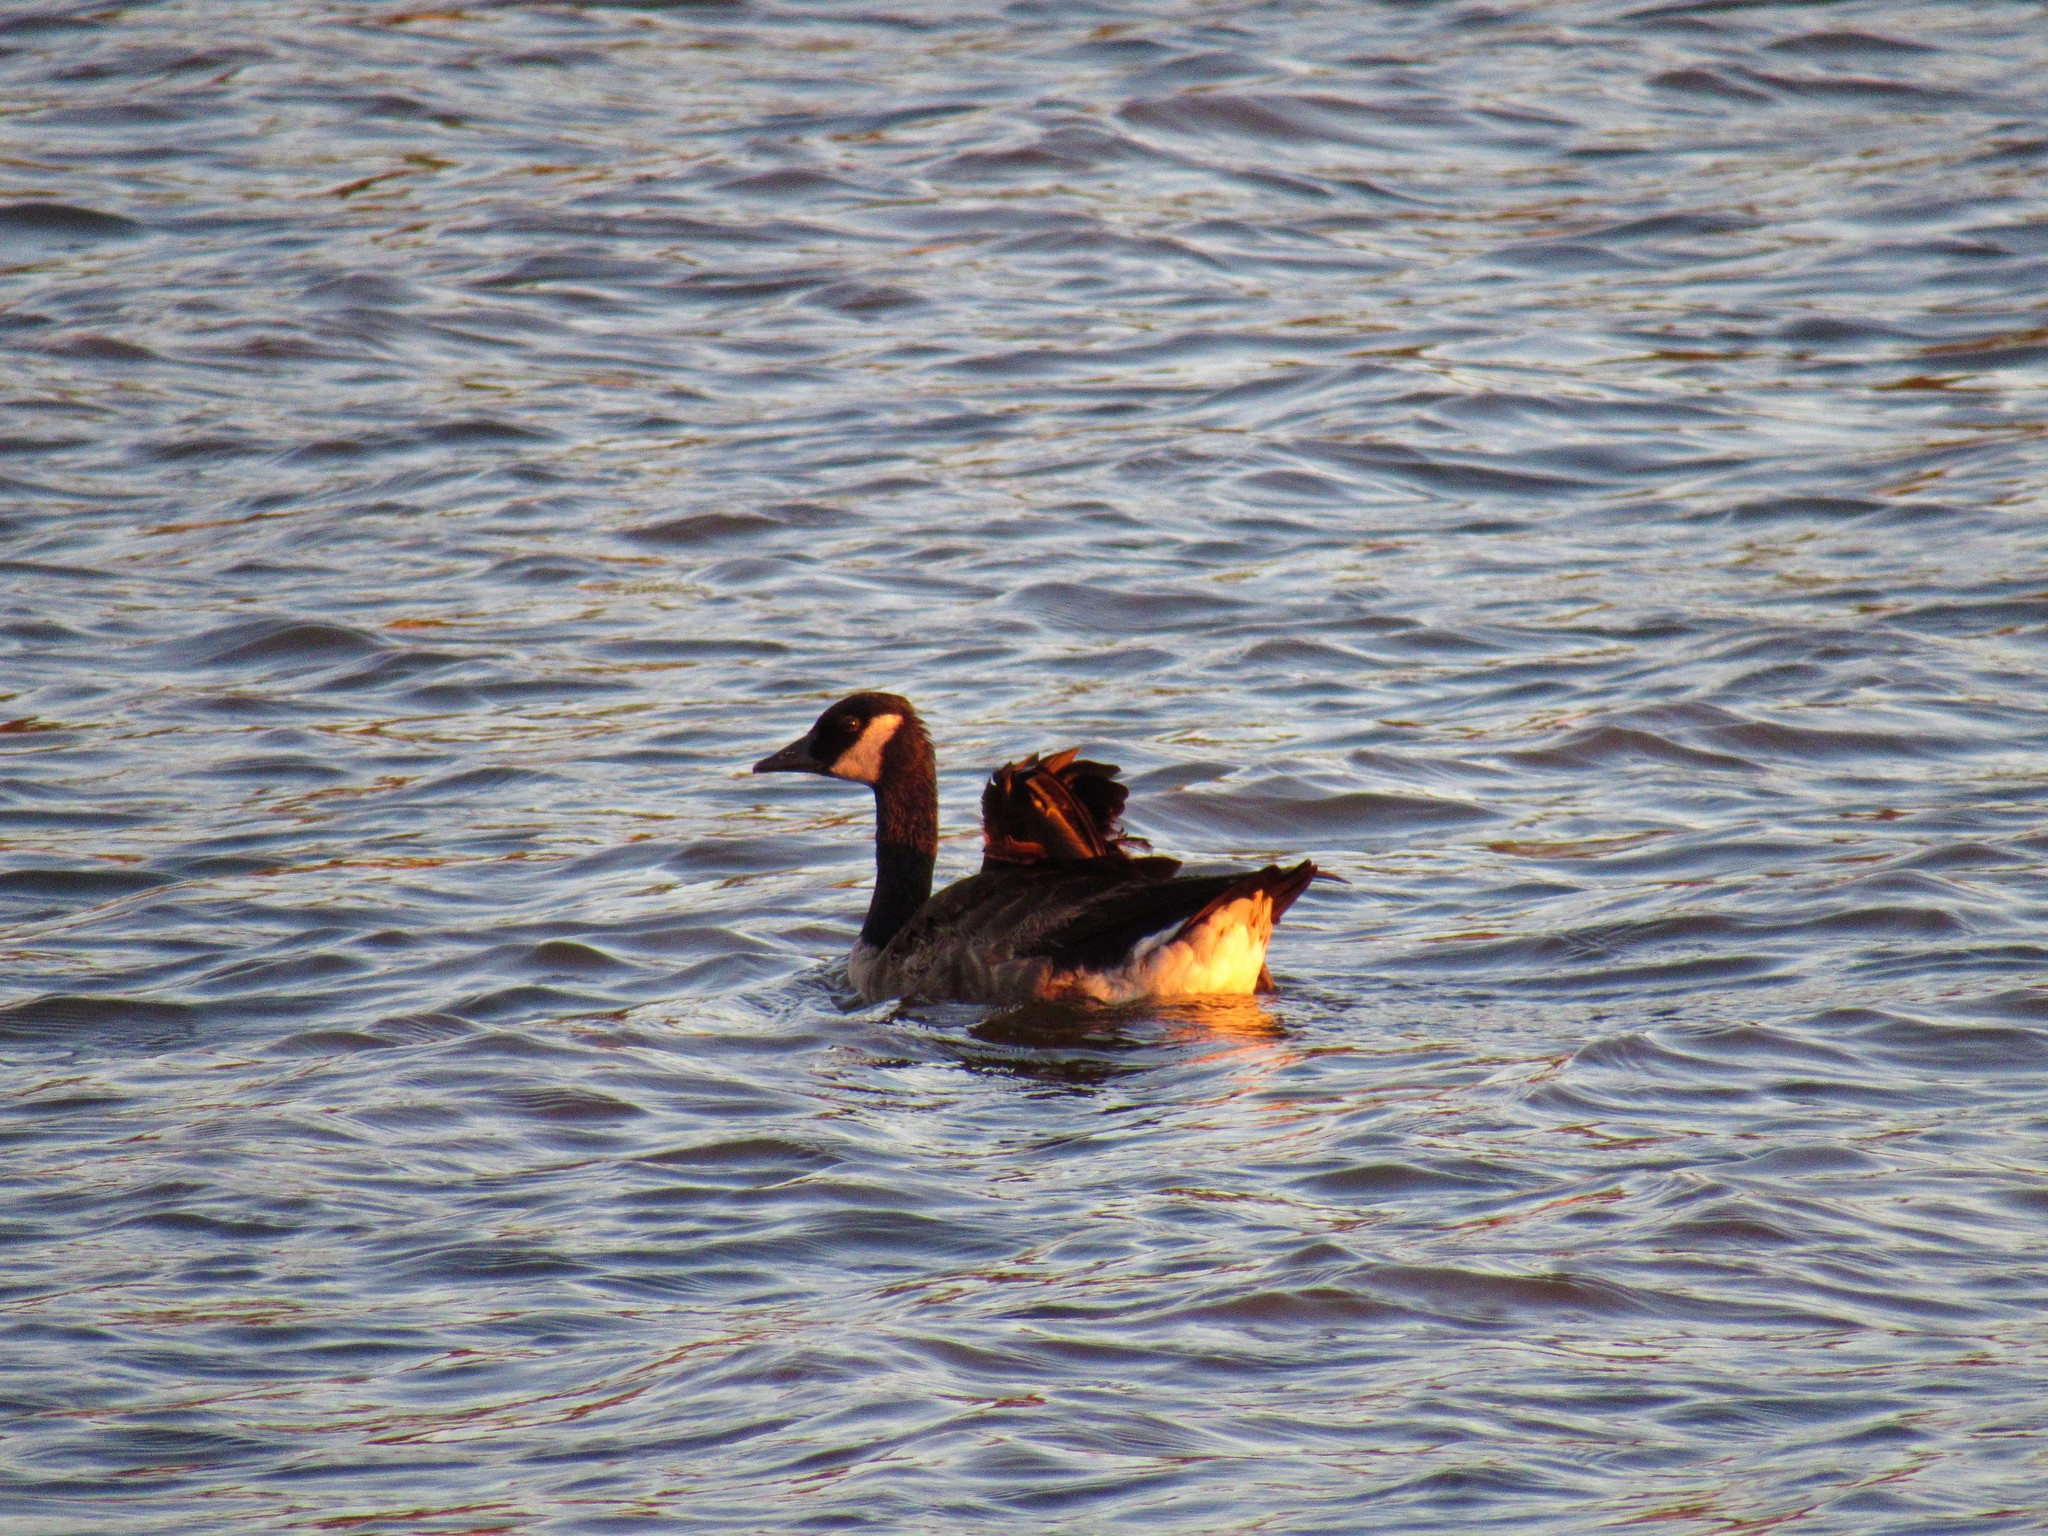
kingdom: Animalia
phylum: Chordata
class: Aves
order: Anseriformes
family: Anatidae
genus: Branta
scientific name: Branta canadensis
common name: Canada goose
